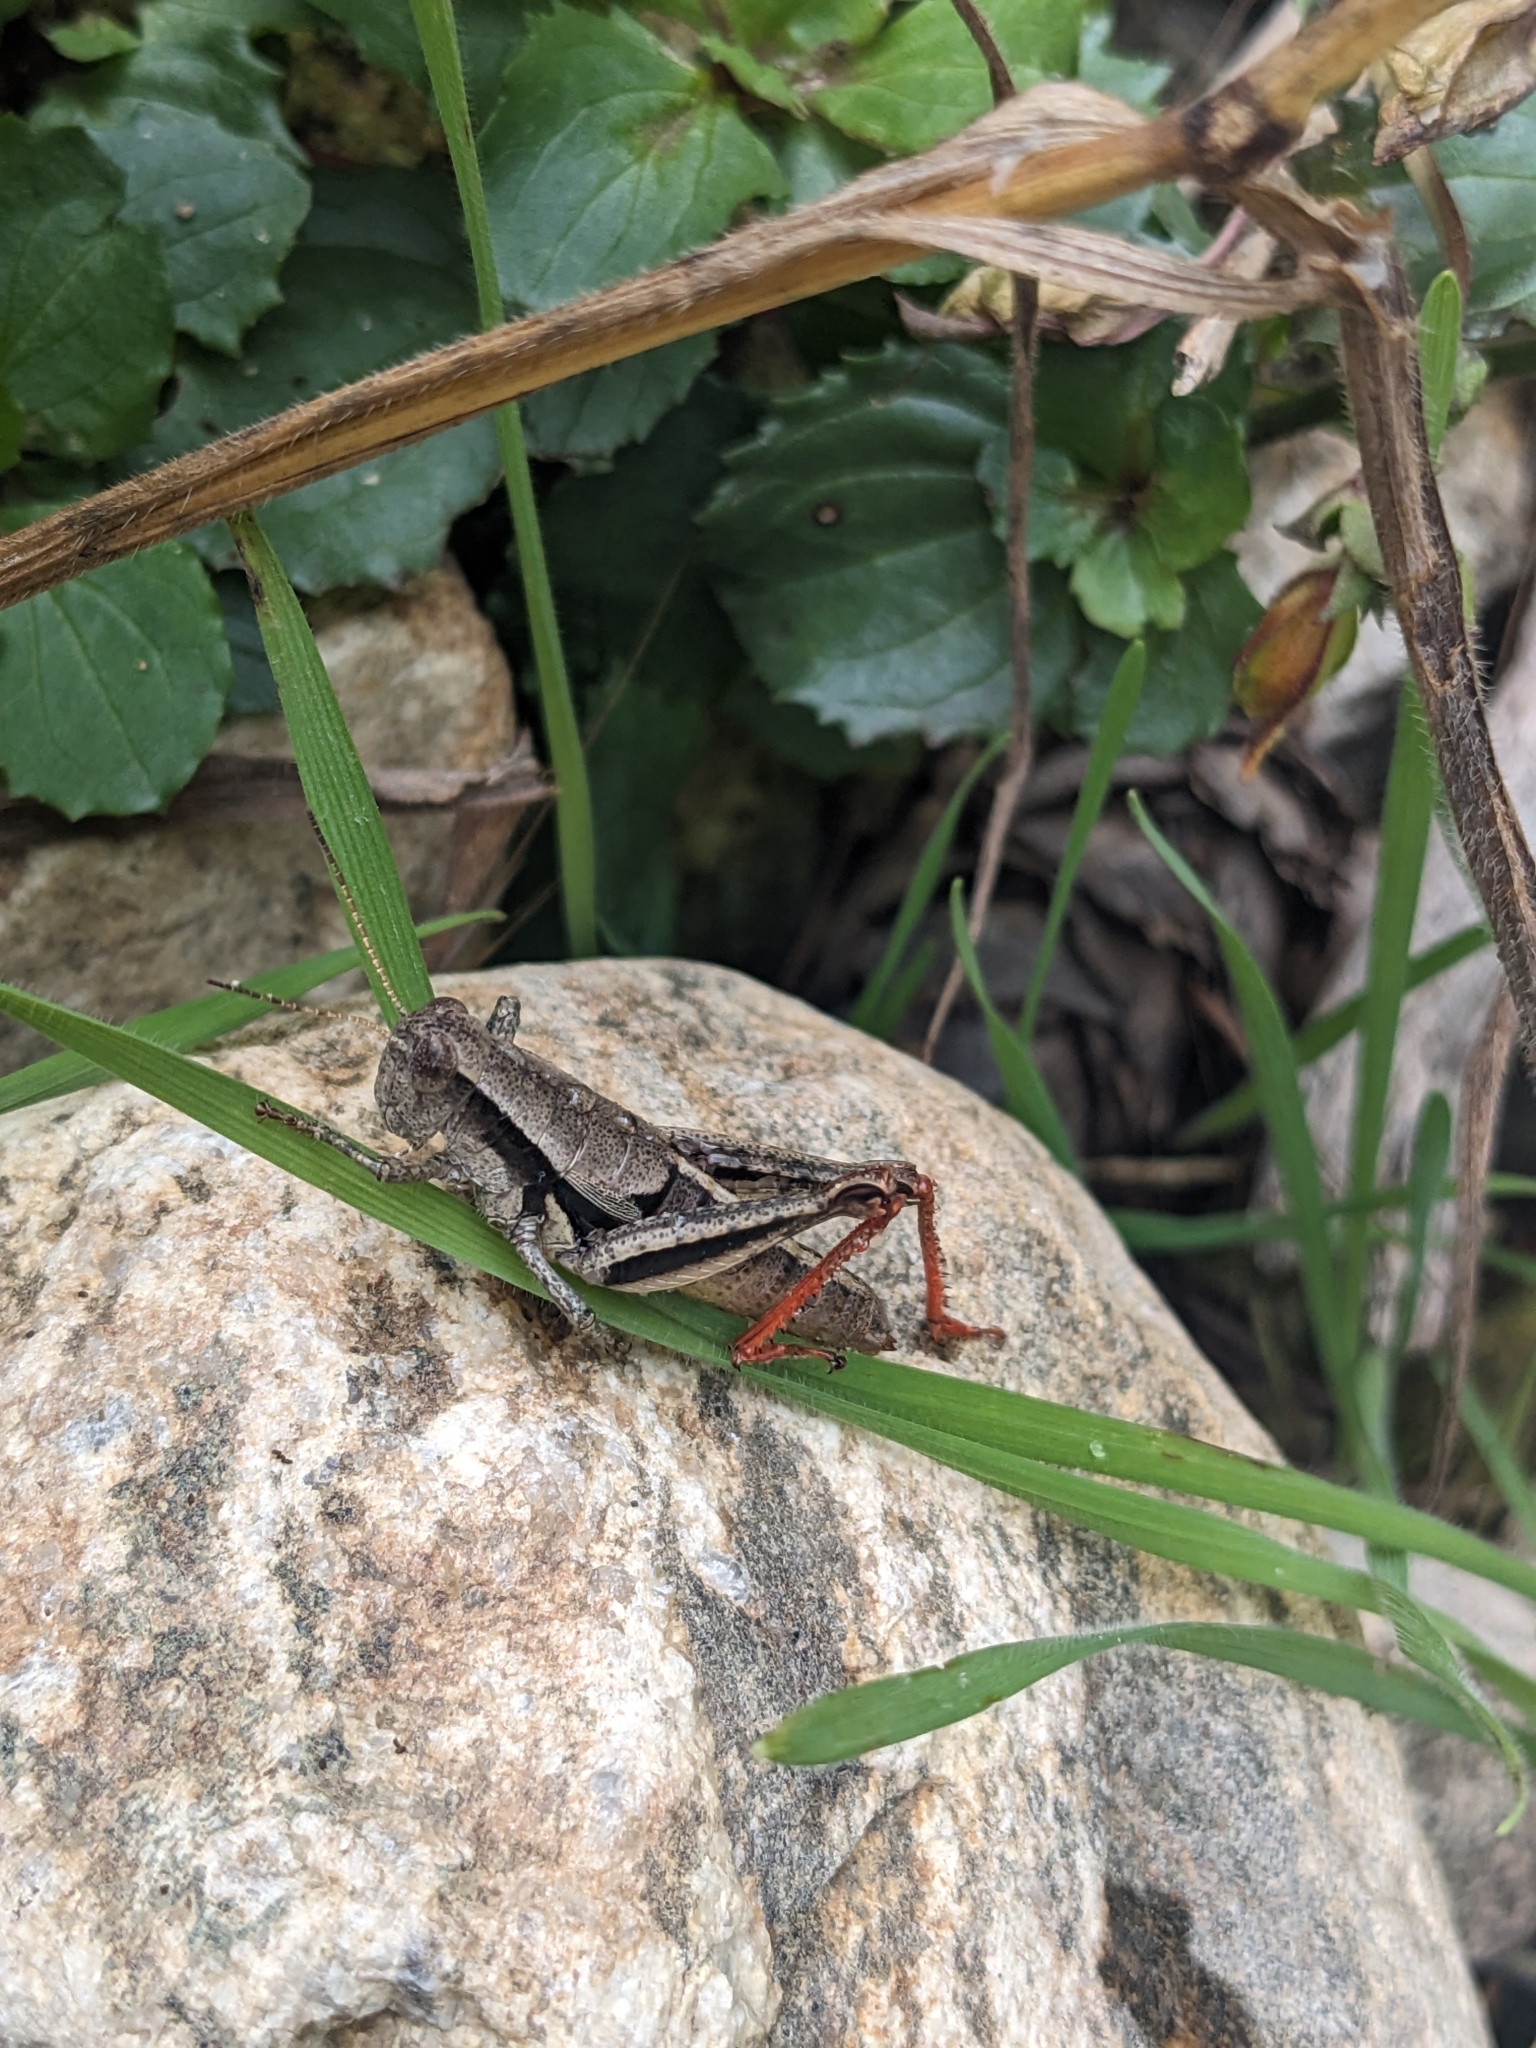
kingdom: Animalia
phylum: Arthropoda
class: Insecta
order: Orthoptera
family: Acrididae
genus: Conalcaea
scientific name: Conalcaea huachucana
